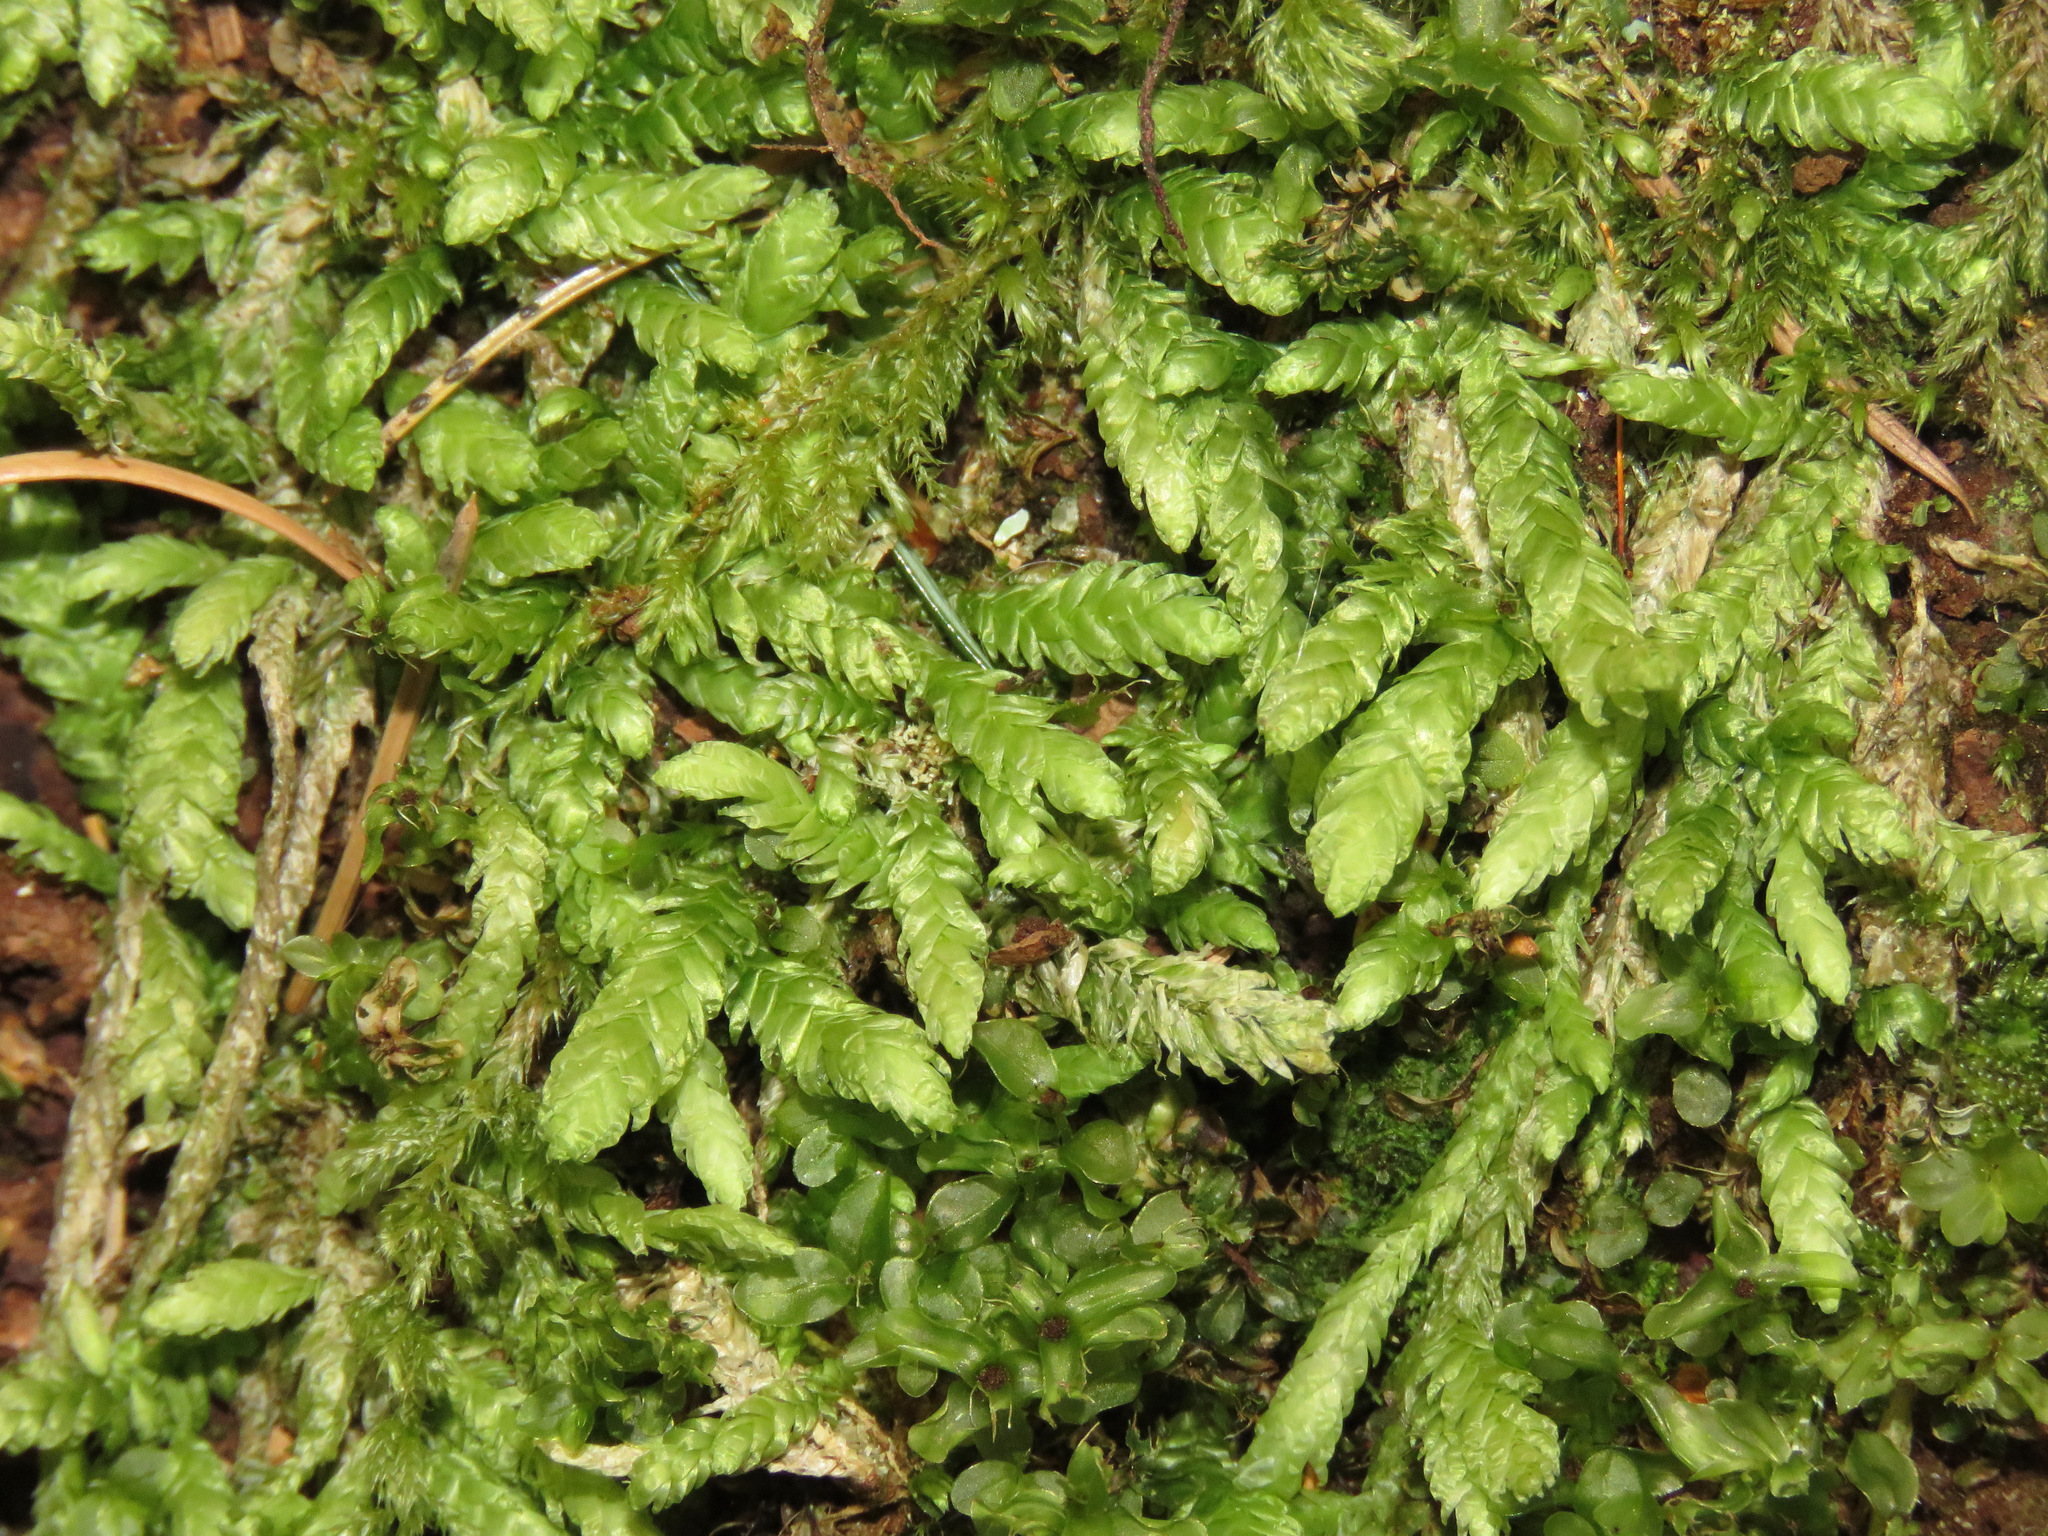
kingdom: Plantae
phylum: Bryophyta
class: Bryopsida
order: Hypnales
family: Plagiotheciaceae
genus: Plagiothecium
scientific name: Plagiothecium undulatum
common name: Waved silk-moss
